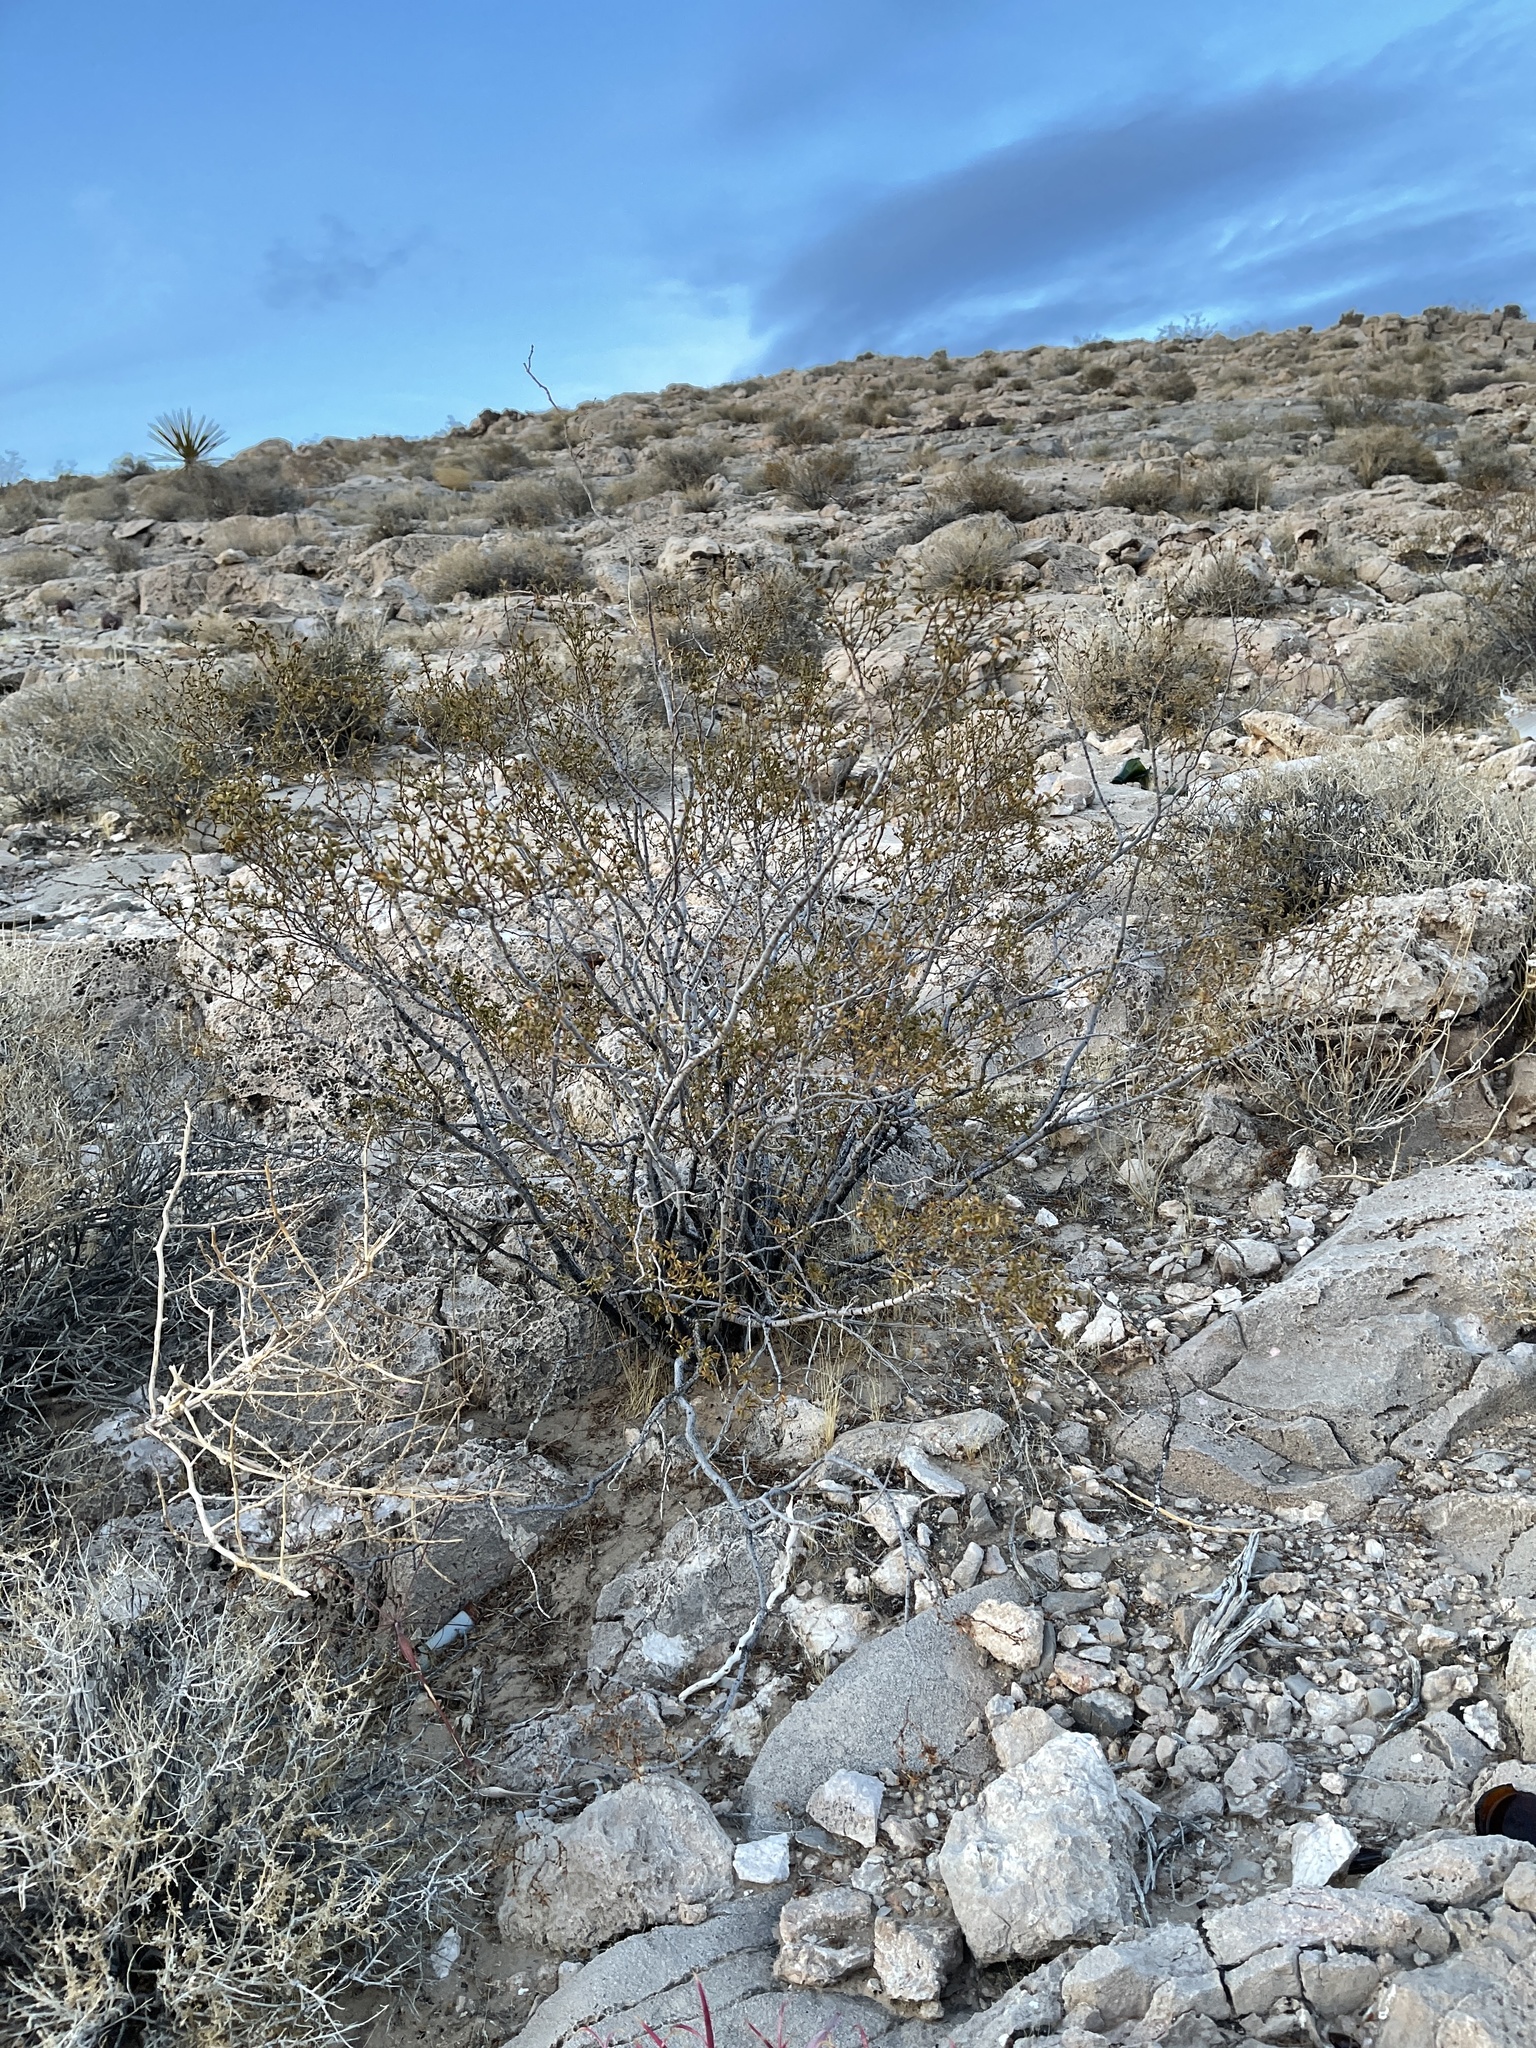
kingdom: Plantae
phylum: Tracheophyta
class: Magnoliopsida
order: Zygophyllales
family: Zygophyllaceae
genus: Larrea
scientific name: Larrea tridentata
